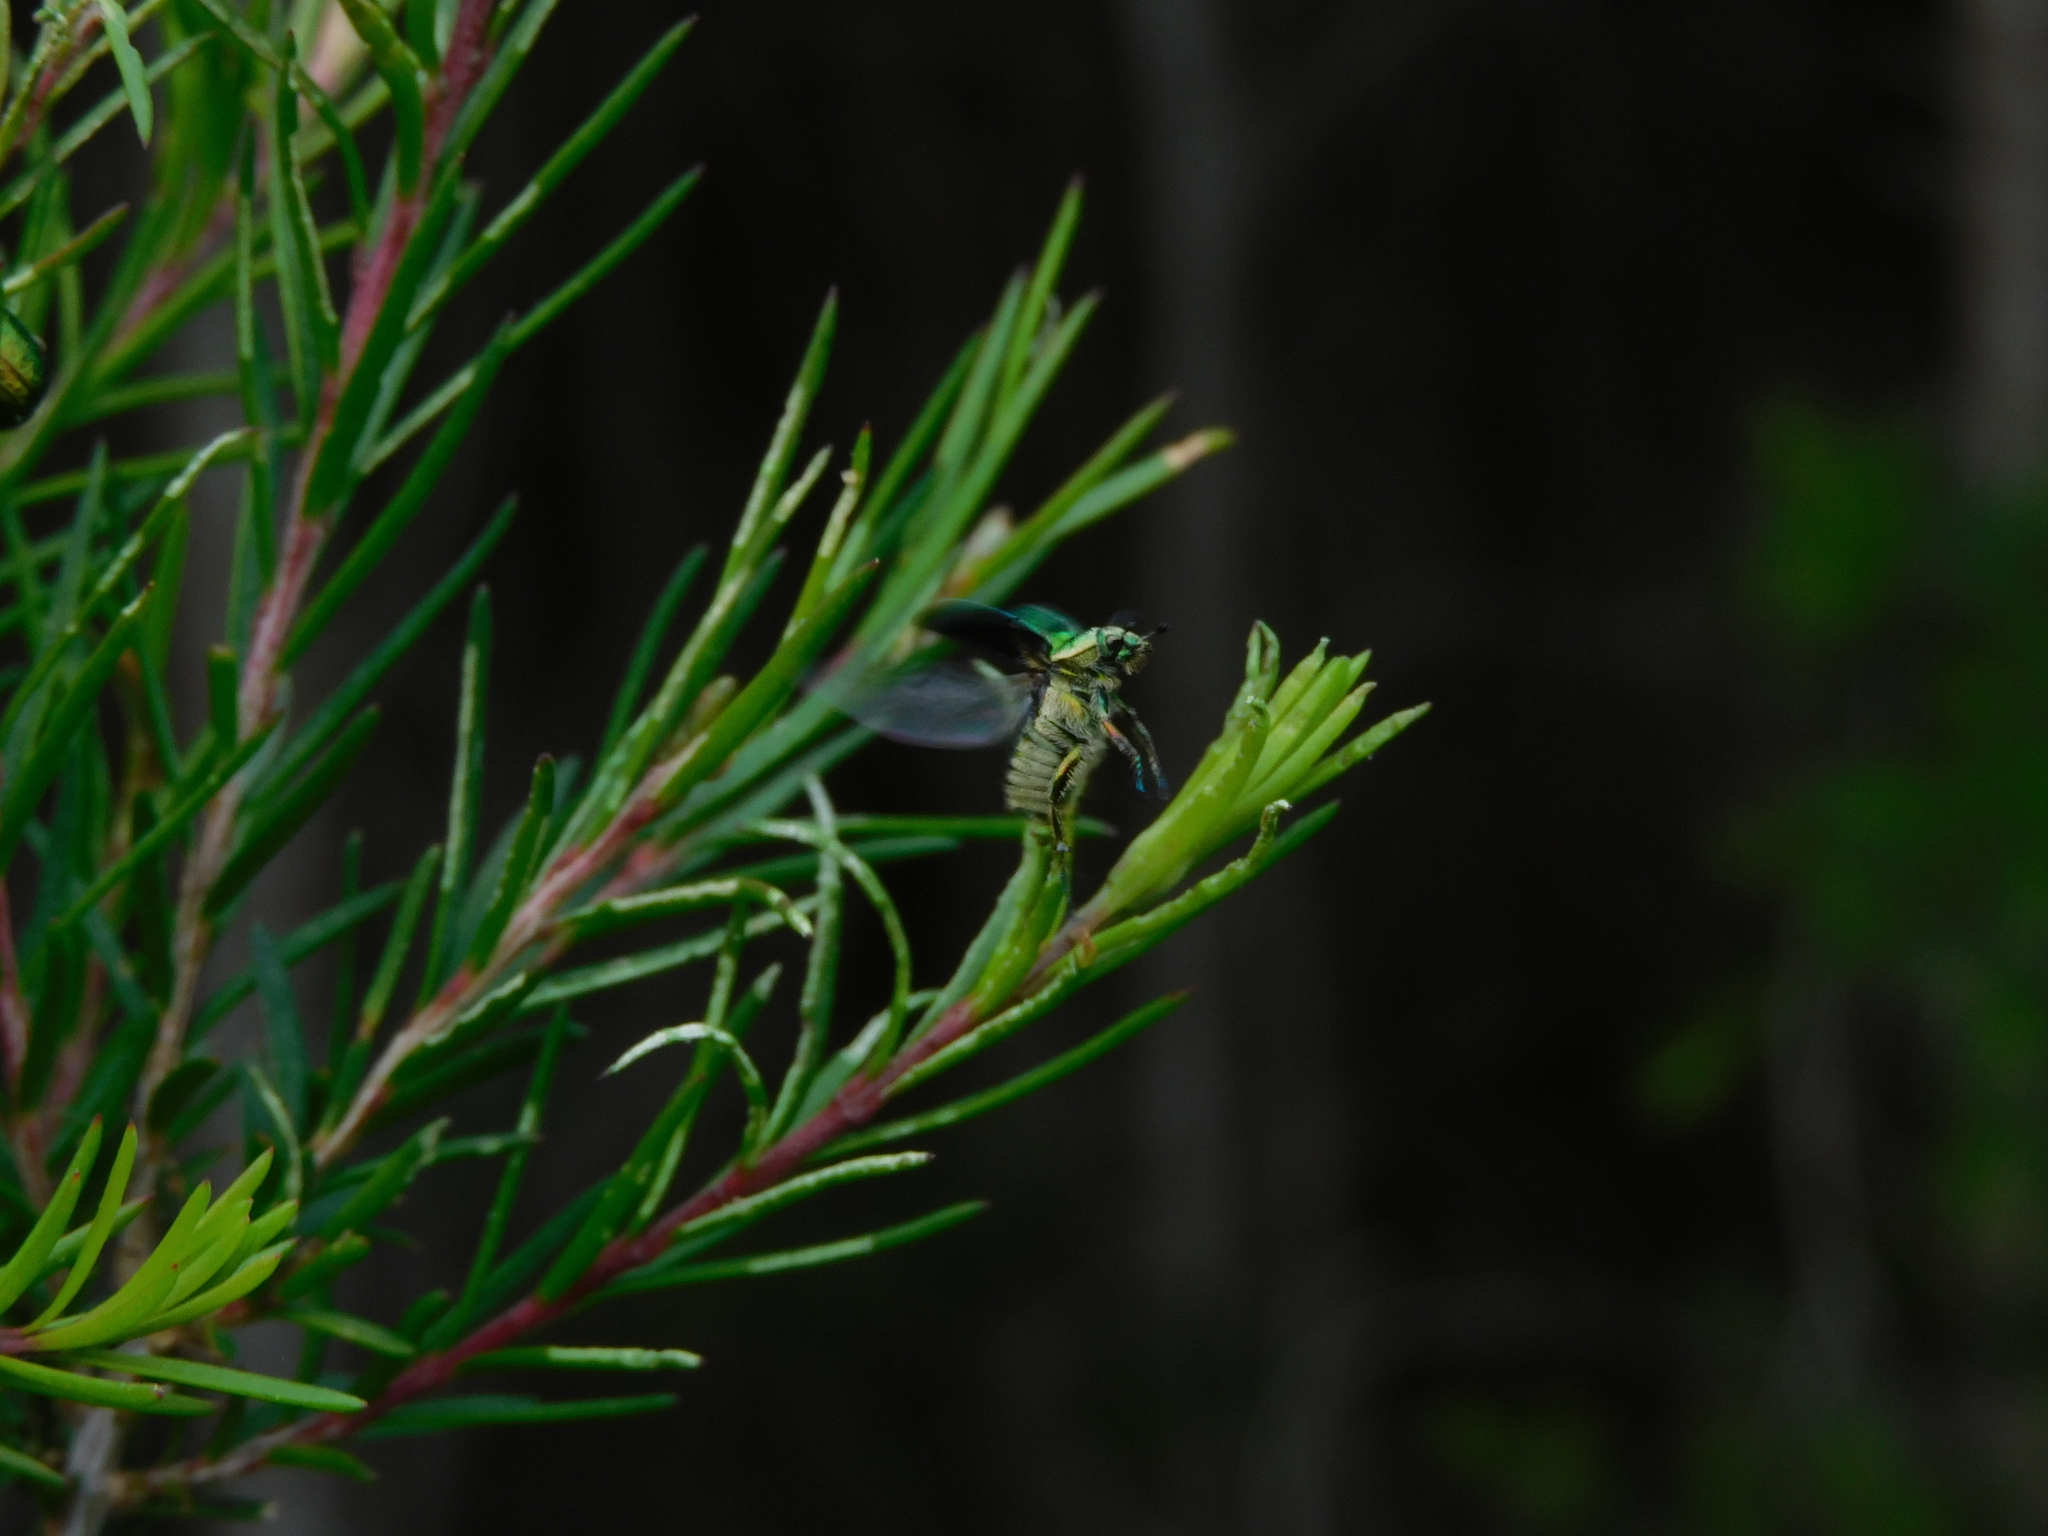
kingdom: Animalia
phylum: Arthropoda
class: Insecta
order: Coleoptera
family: Scarabaeidae
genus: Diphucephala
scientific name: Diphucephala colaspidoides
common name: Green scarab beetle
